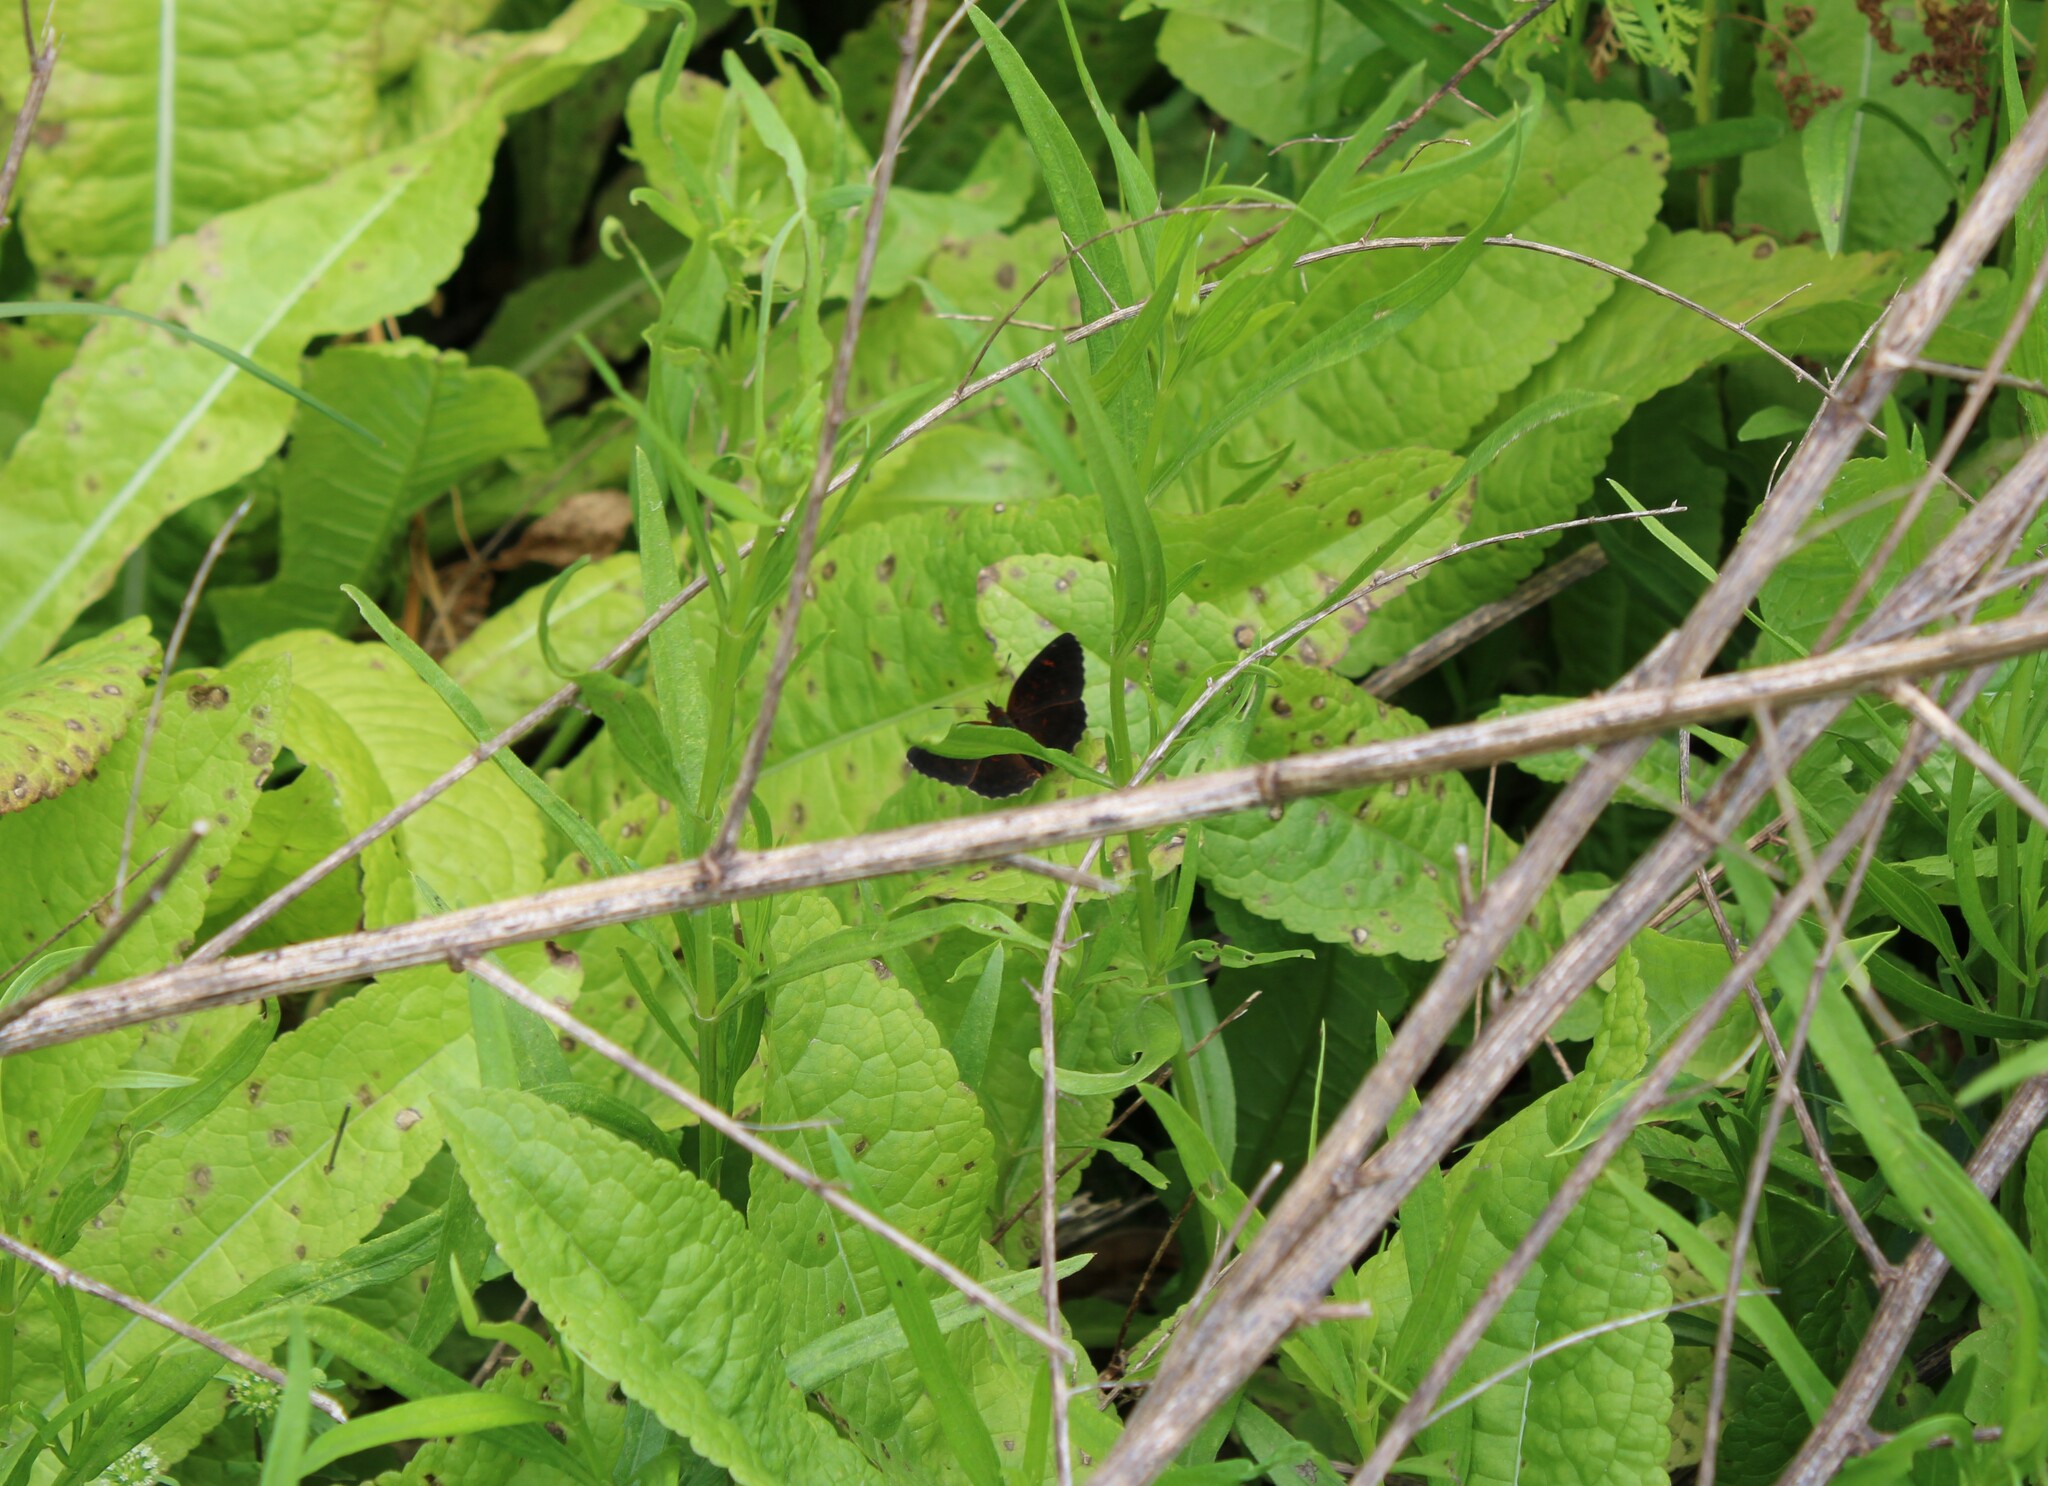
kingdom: Animalia
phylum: Arthropoda
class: Insecta
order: Lepidoptera
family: Nymphalidae
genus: Ortilia
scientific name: Ortilia velica
